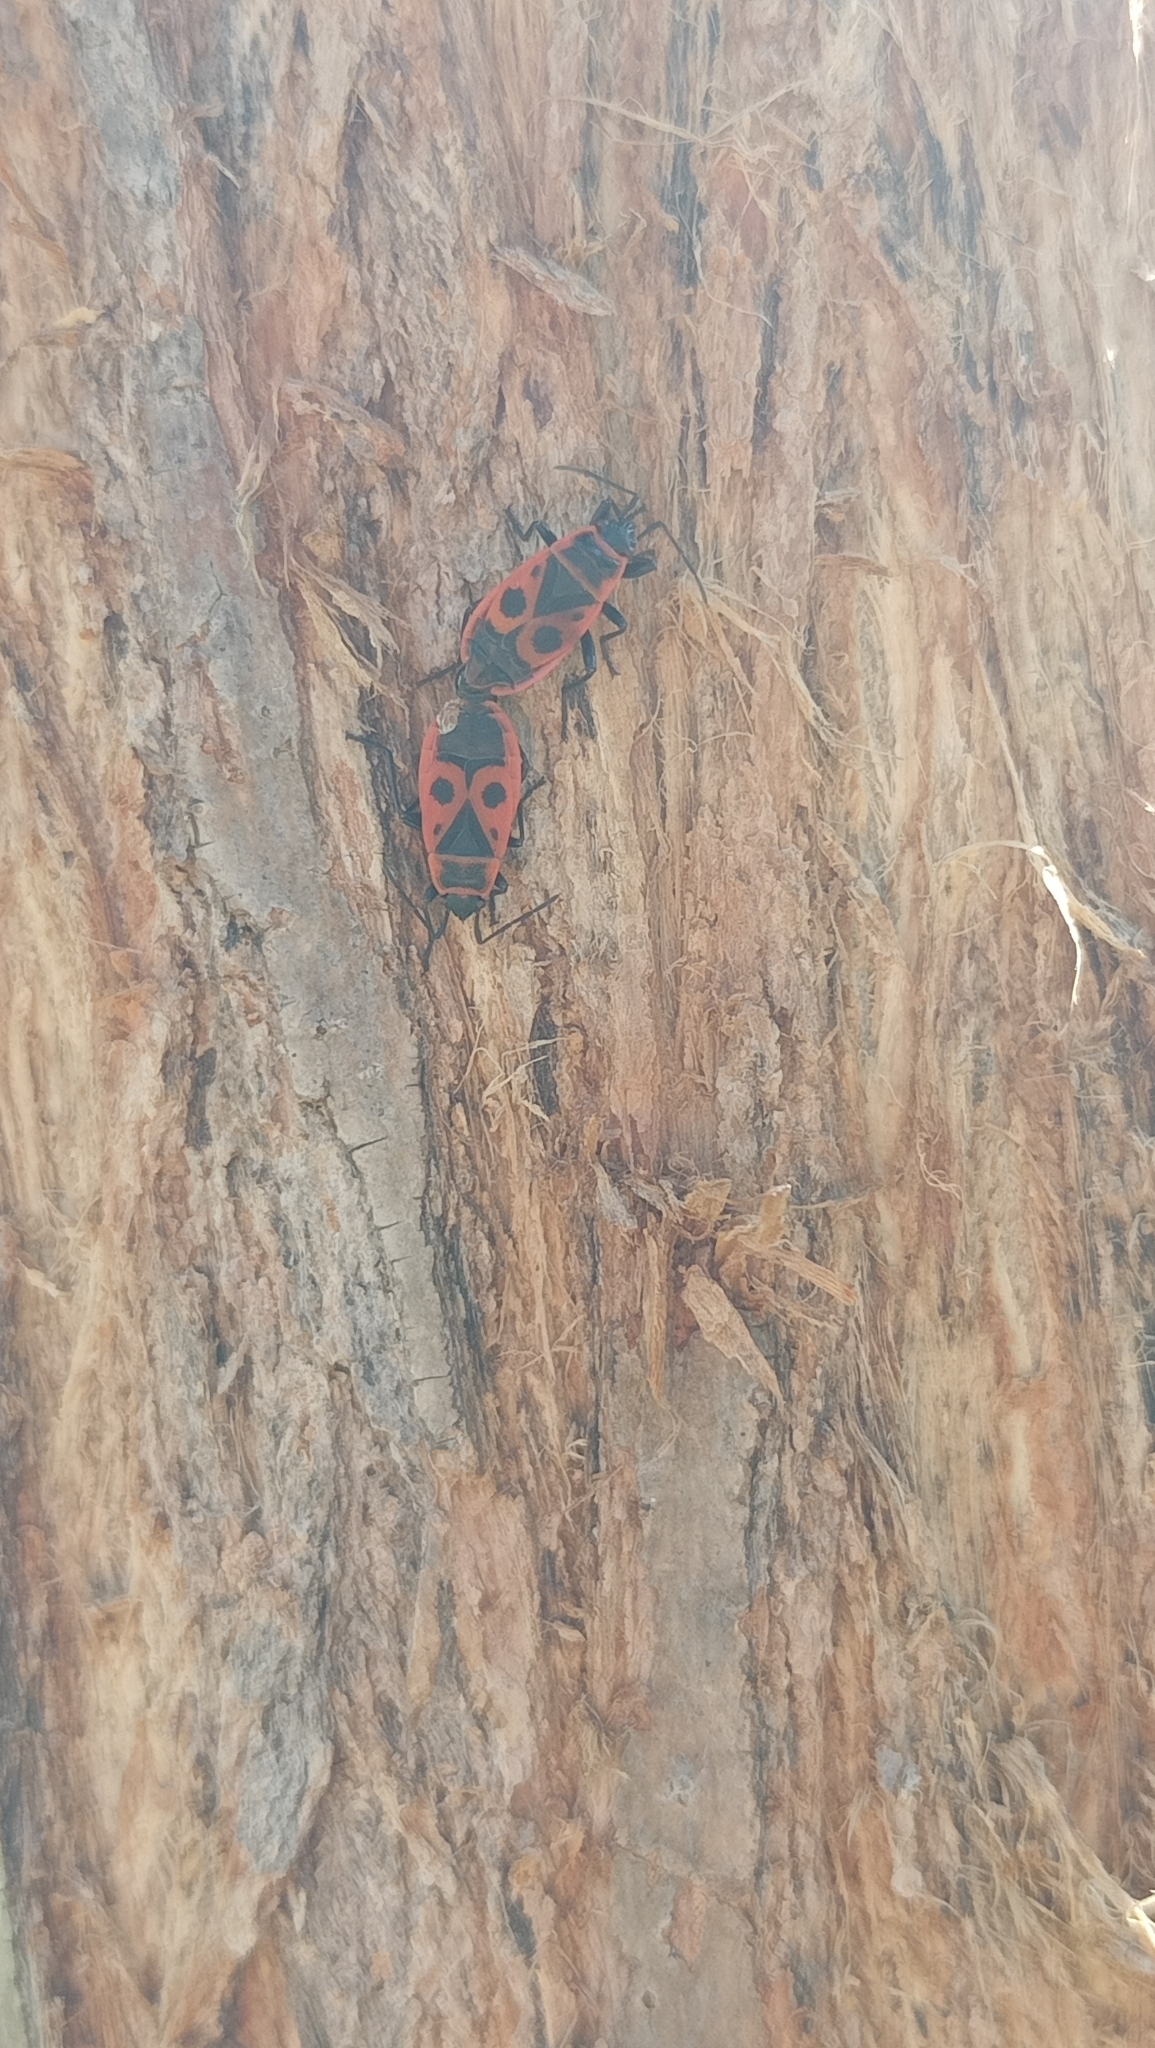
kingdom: Animalia
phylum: Arthropoda
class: Insecta
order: Hemiptera
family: Pyrrhocoridae
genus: Pyrrhocoris
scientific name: Pyrrhocoris apterus
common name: Firebug
